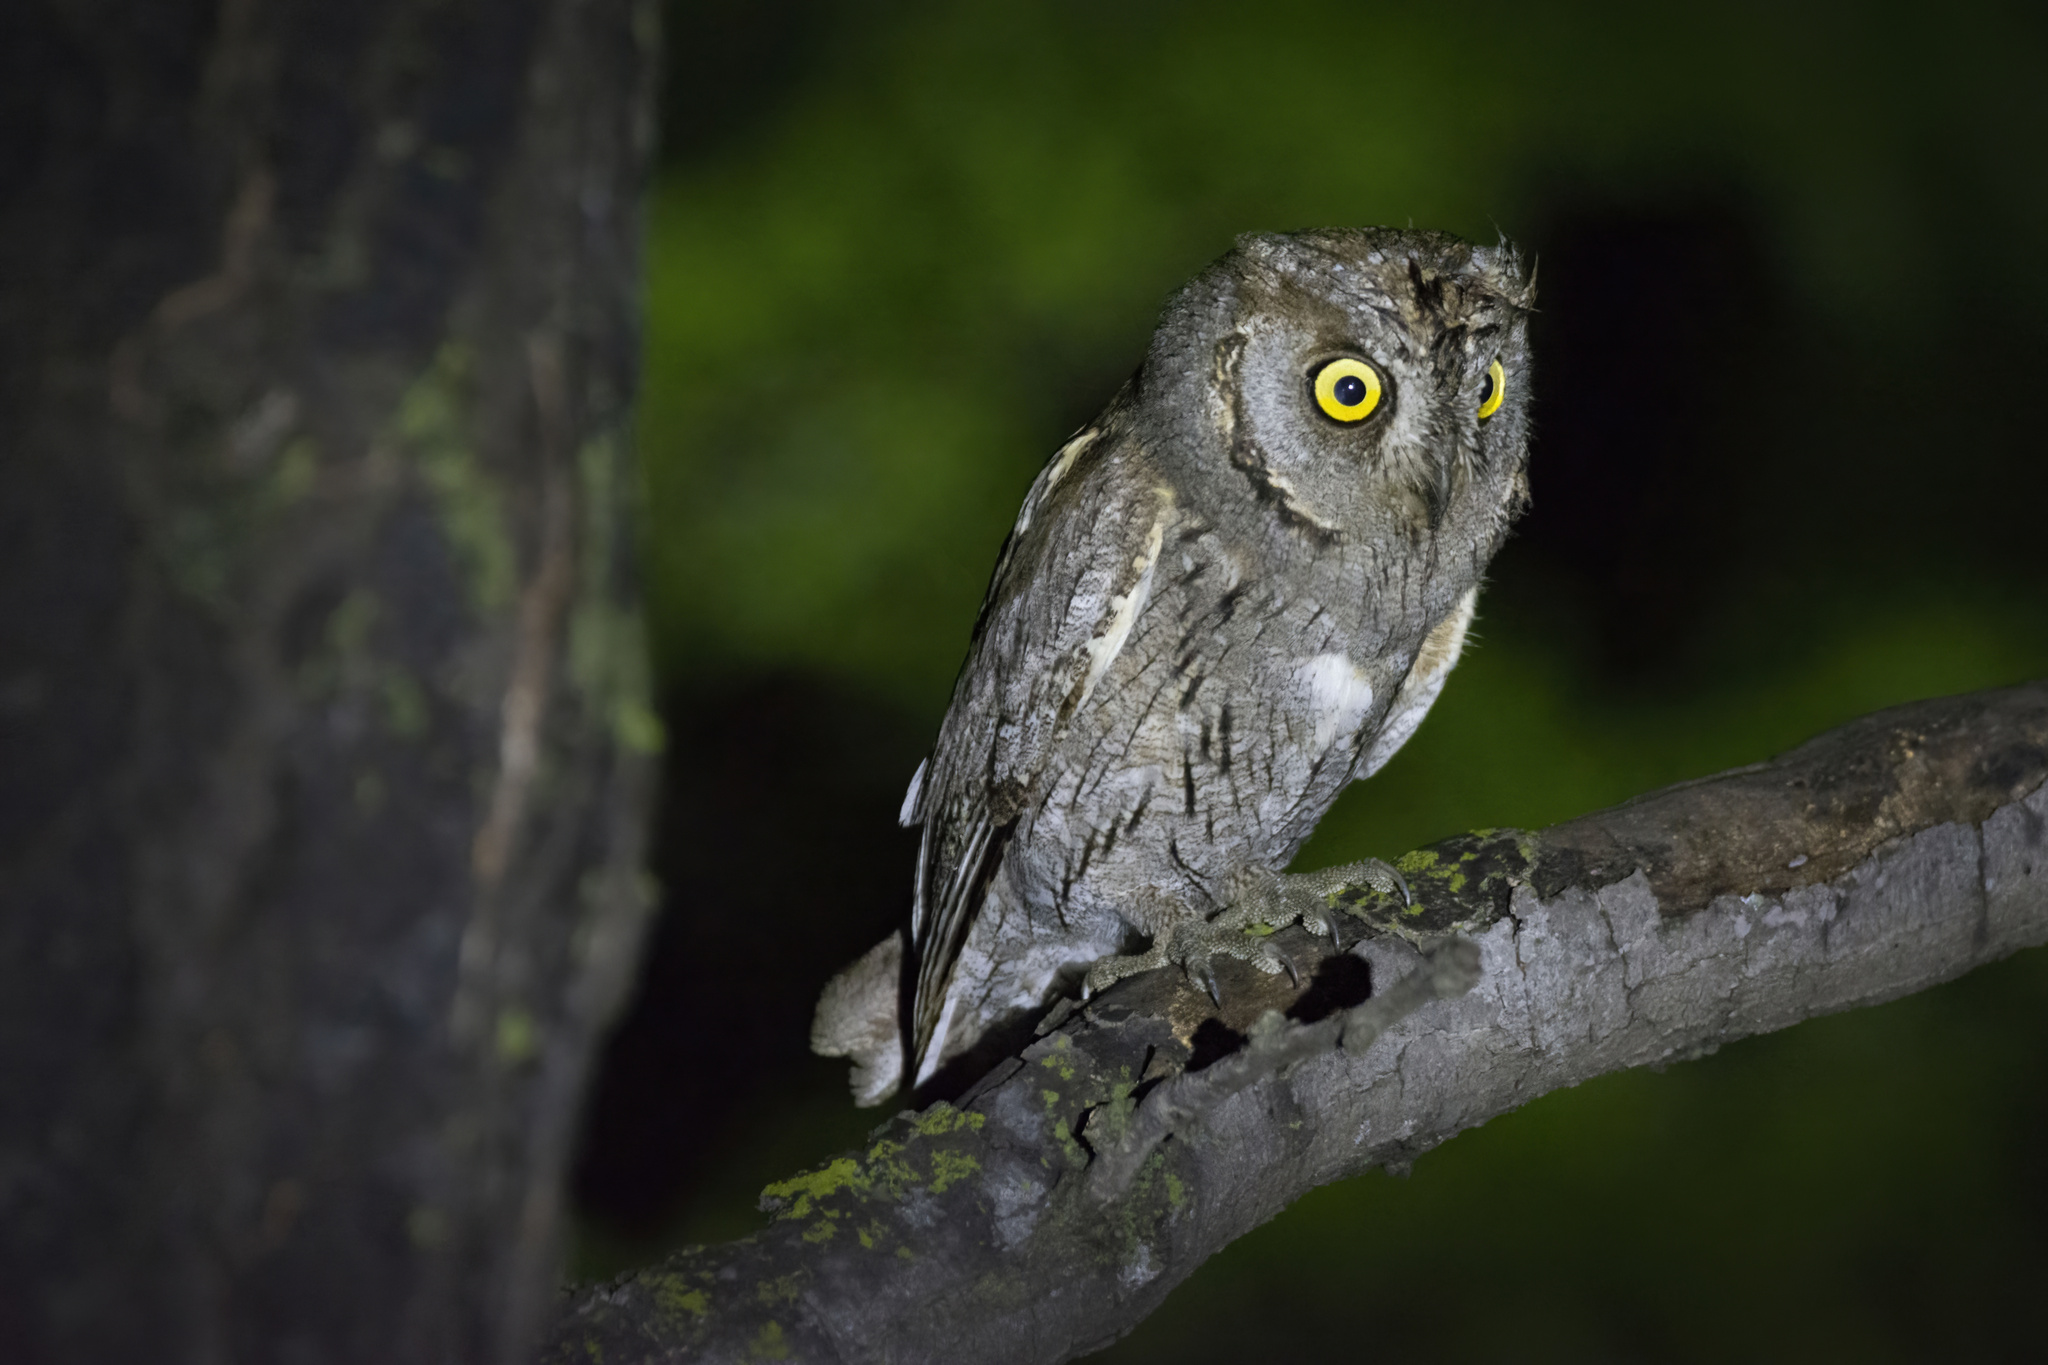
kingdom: Animalia
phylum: Chordata
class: Aves
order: Strigiformes
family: Strigidae
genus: Otus
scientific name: Otus scops
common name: Eurasian scops owl
